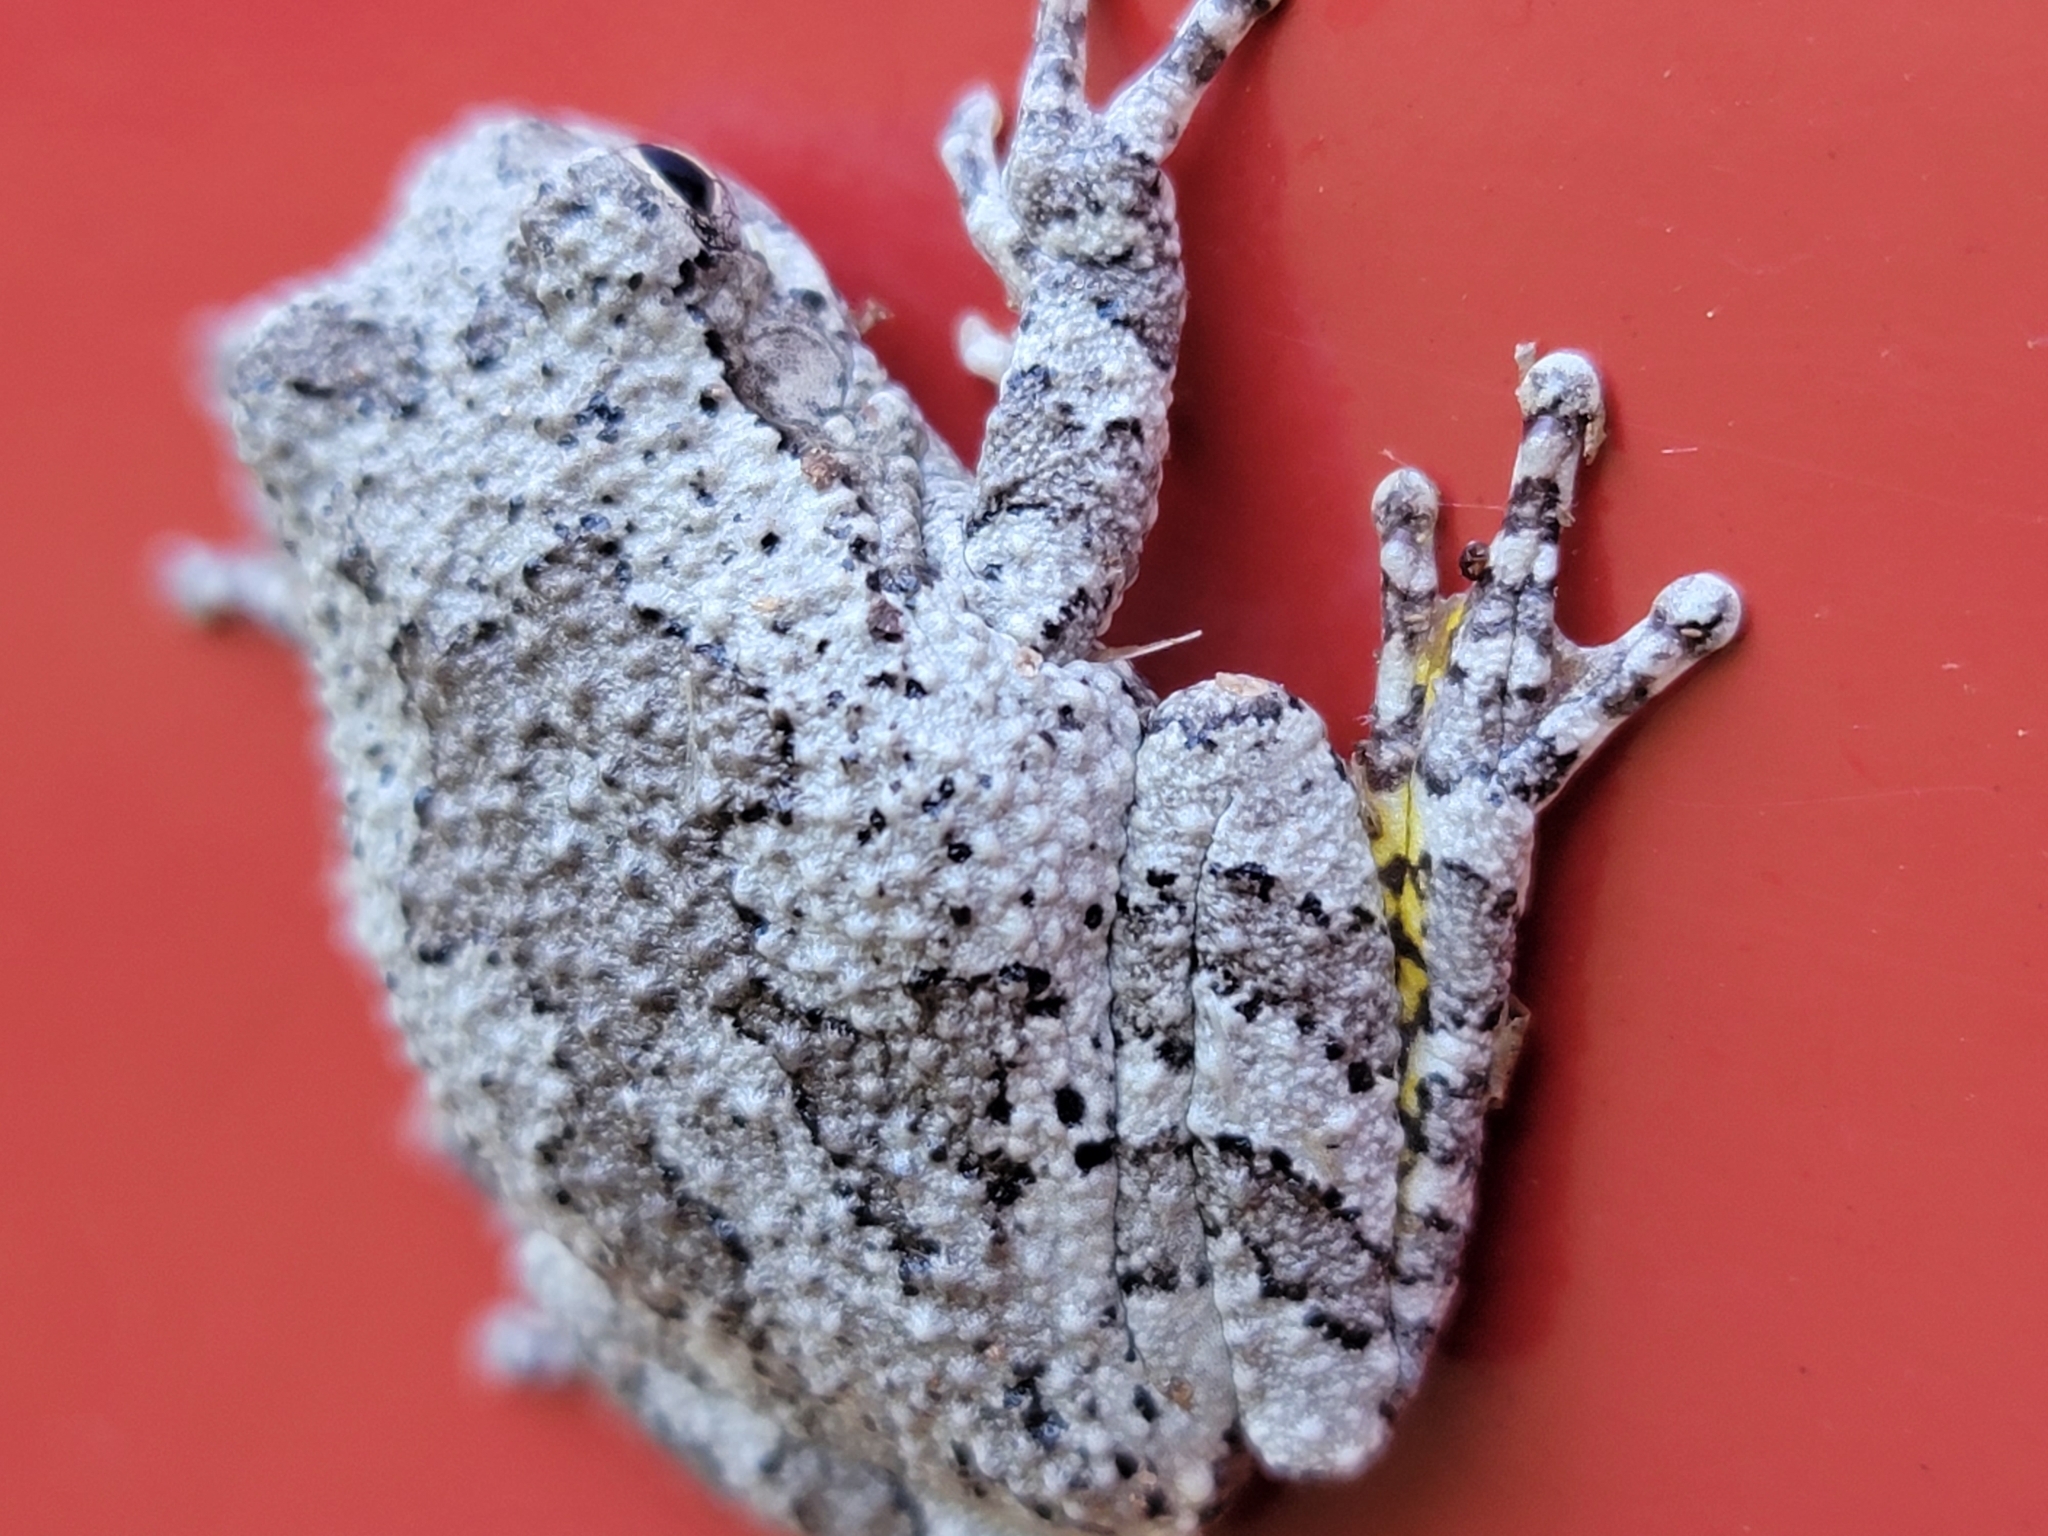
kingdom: Animalia
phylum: Chordata
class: Amphibia
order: Anura
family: Hylidae
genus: Dryophytes
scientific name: Dryophytes chrysoscelis
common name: Cope's gray treefrog
